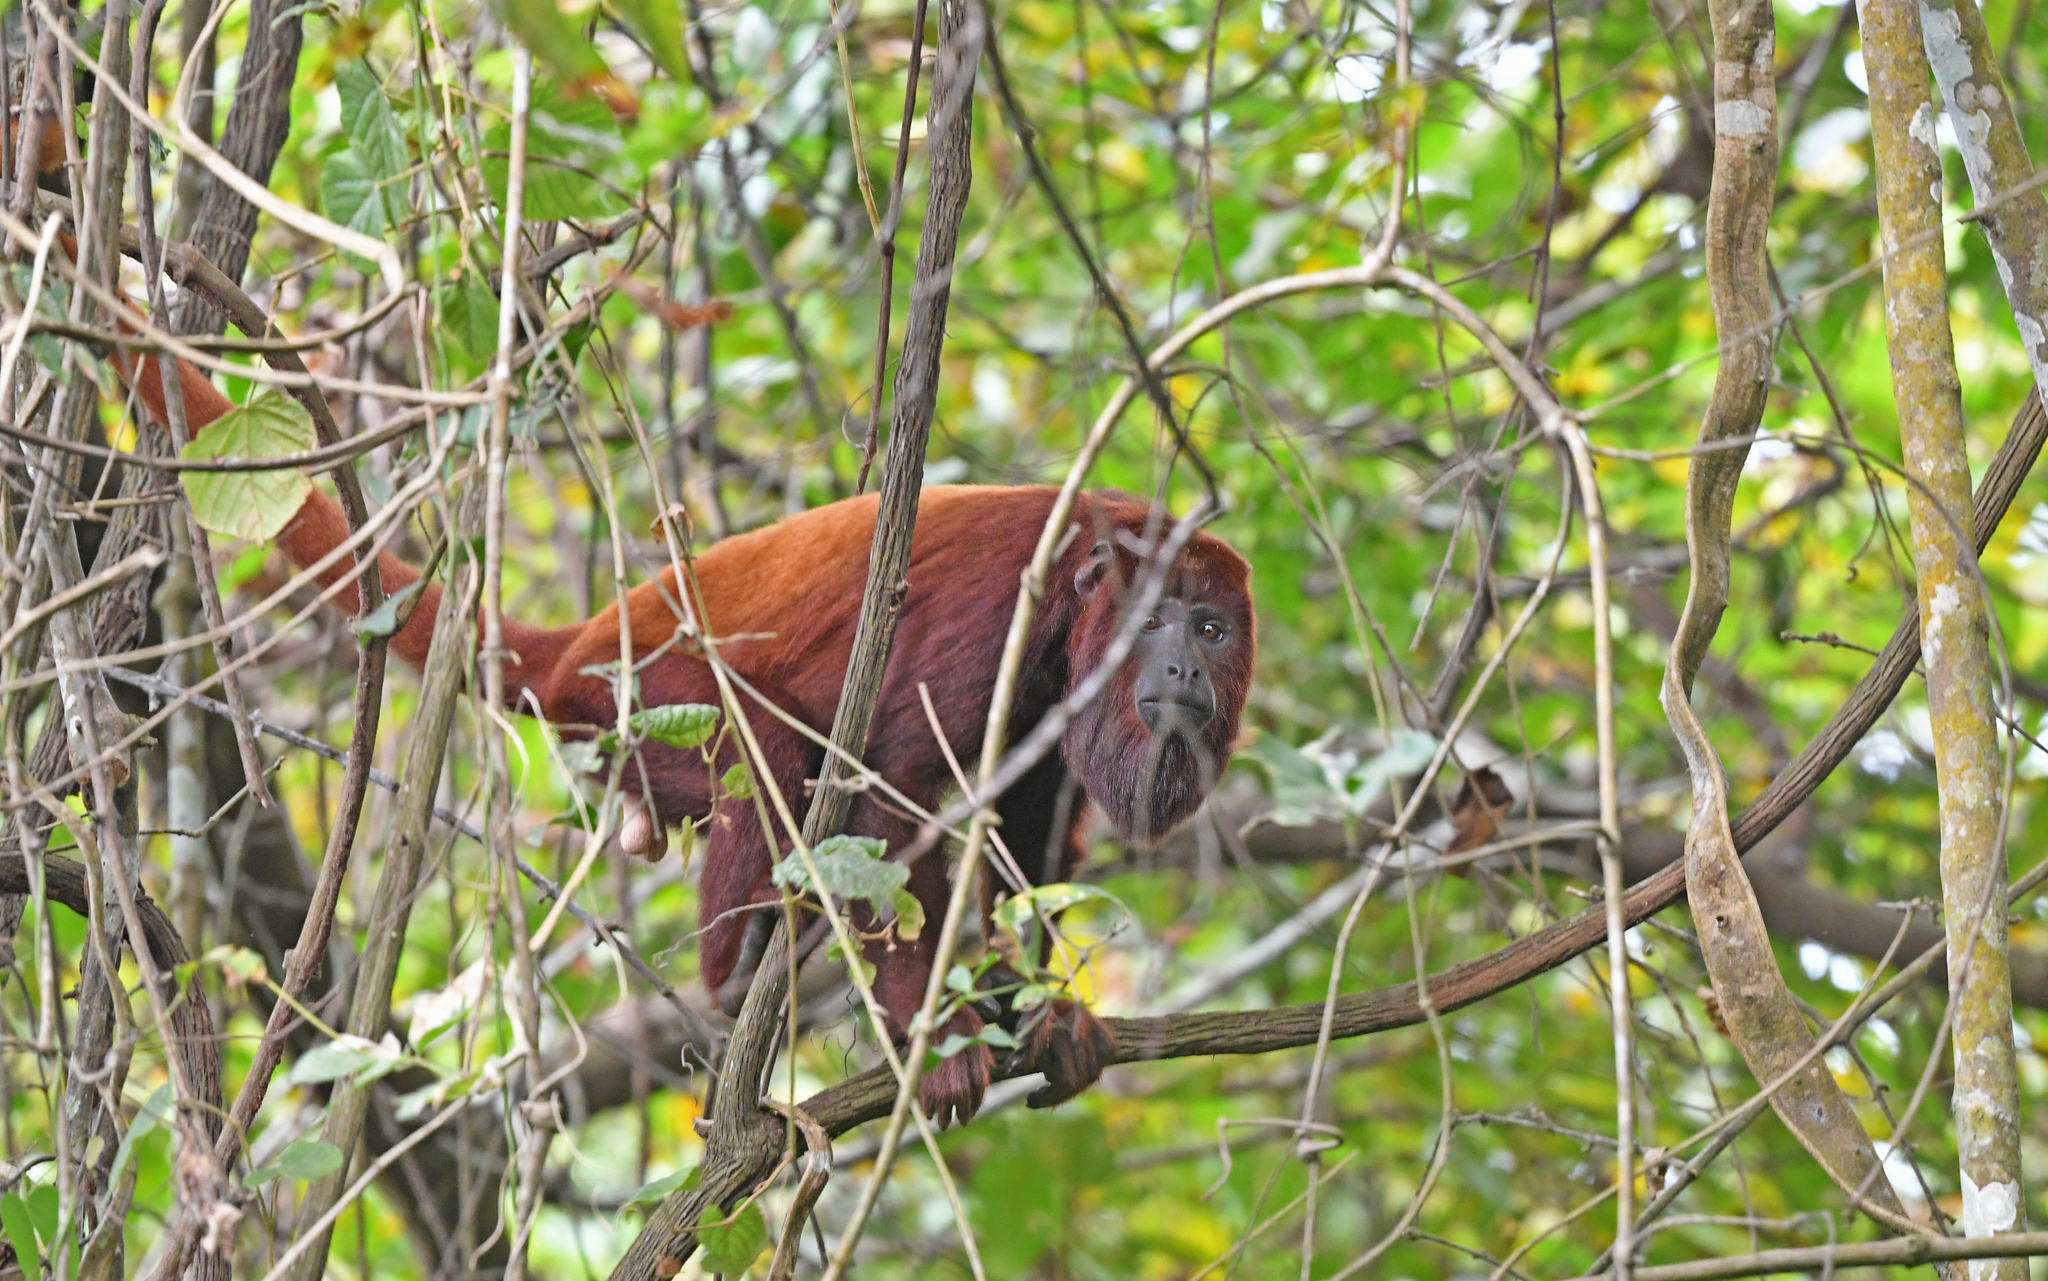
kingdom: Animalia
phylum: Chordata
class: Mammalia
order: Primates
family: Atelidae
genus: Alouatta
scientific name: Alouatta seniculus
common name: Venezuelan red howler
